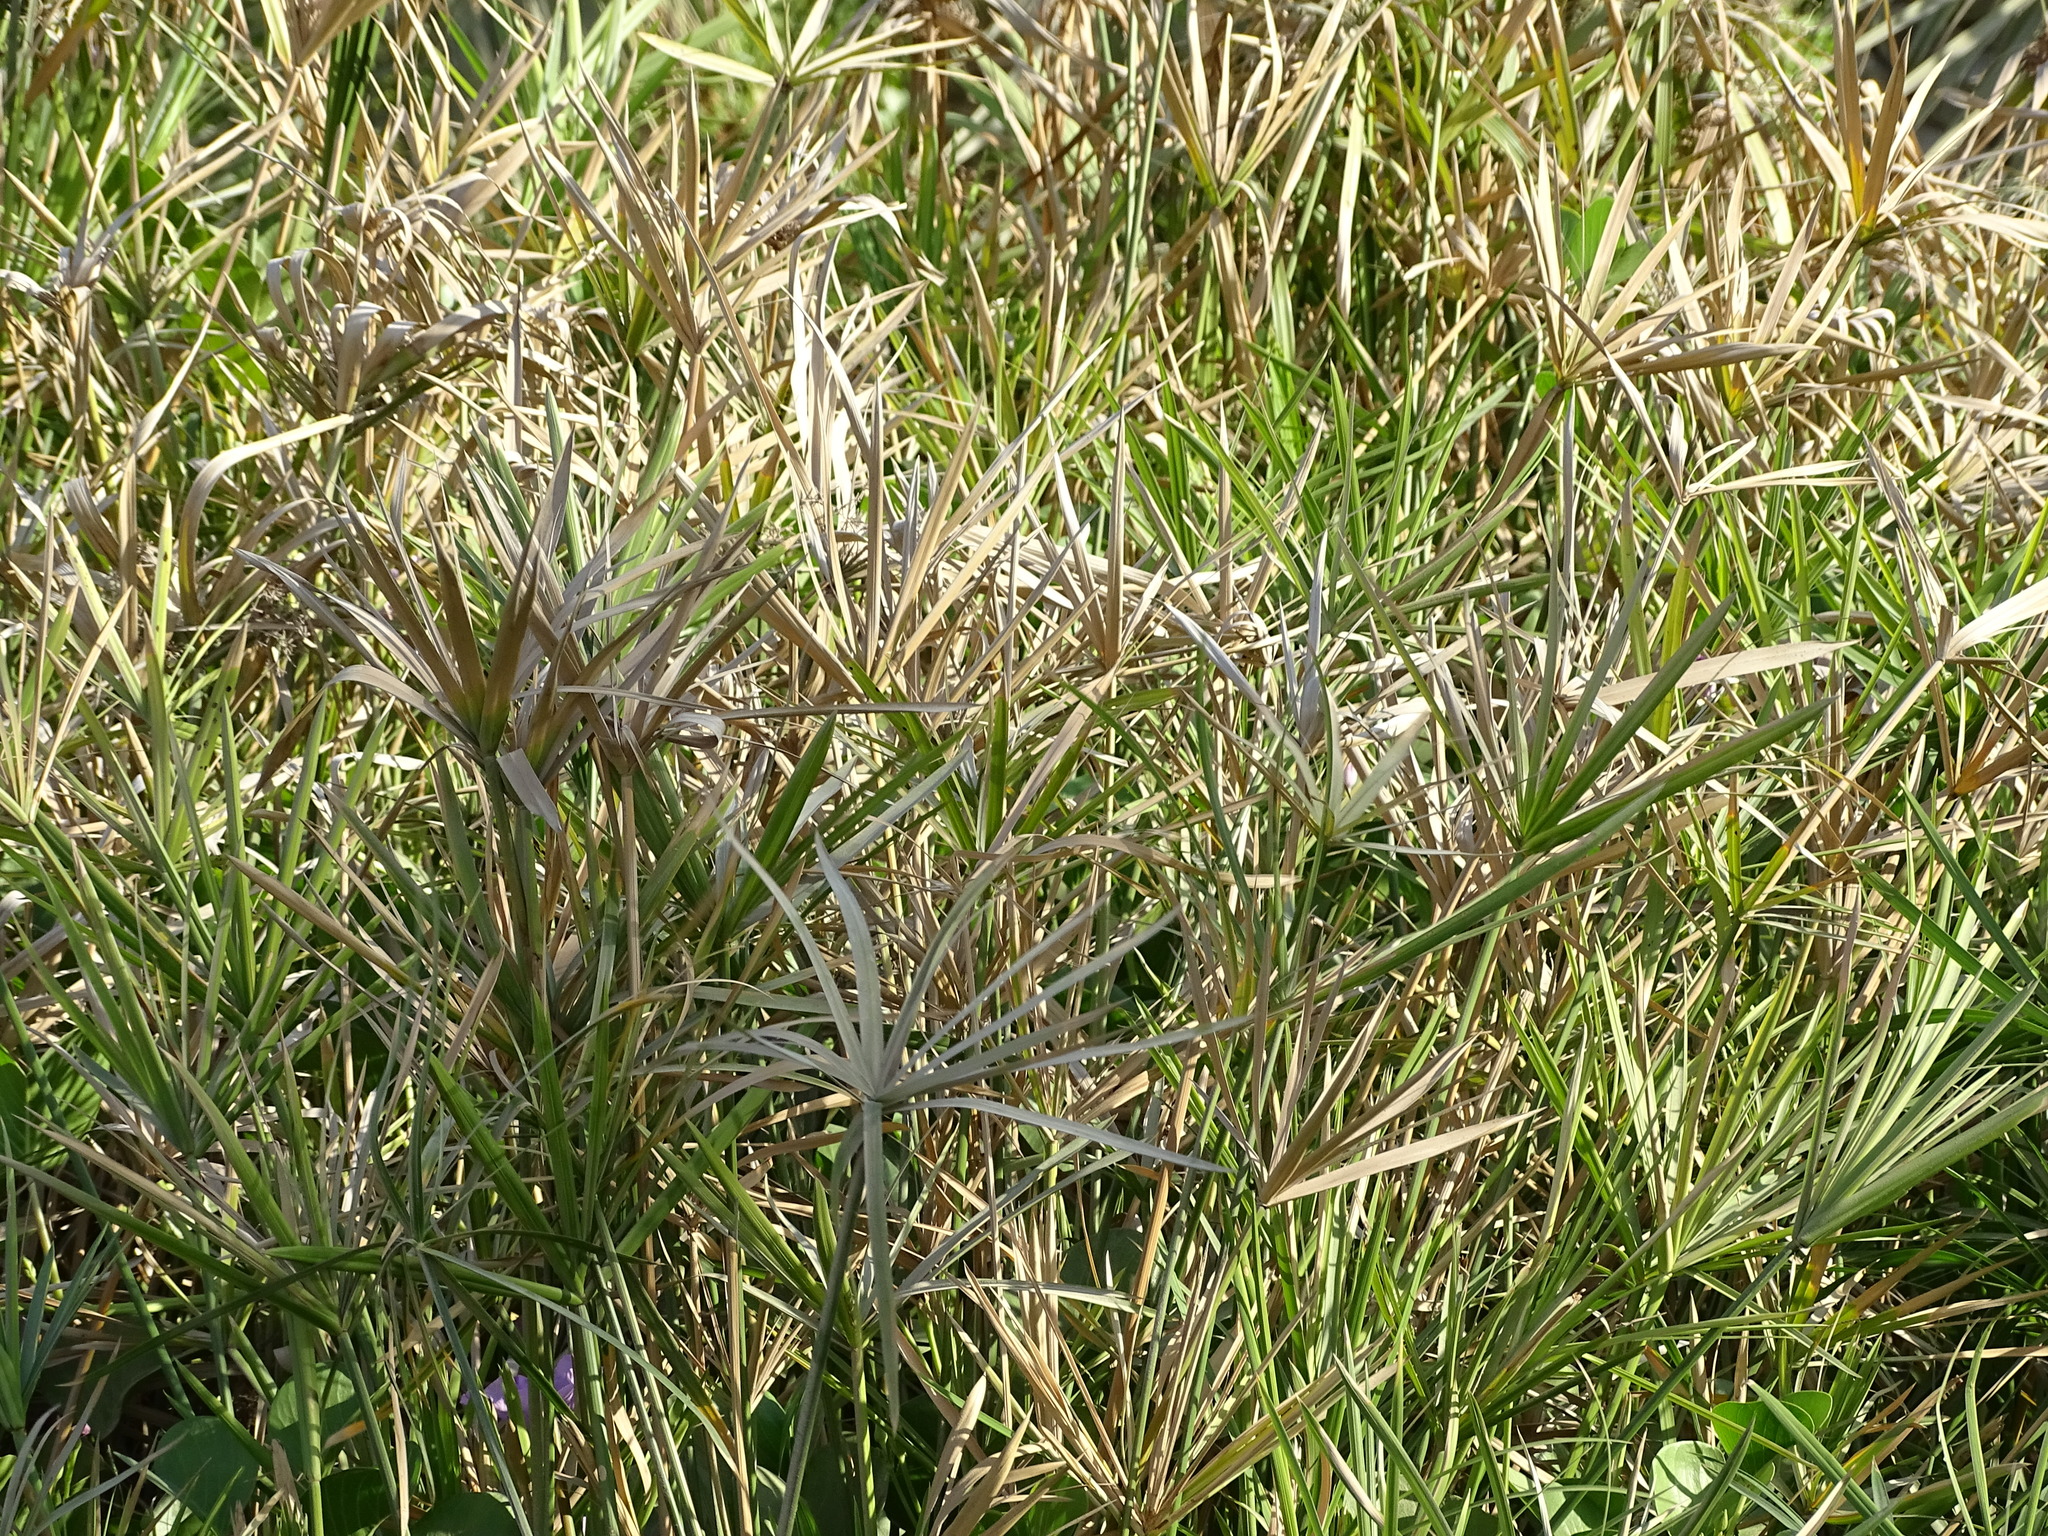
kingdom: Plantae
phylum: Tracheophyta
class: Liliopsida
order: Poales
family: Cyperaceae
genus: Cyperus
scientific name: Cyperus alternifolius
